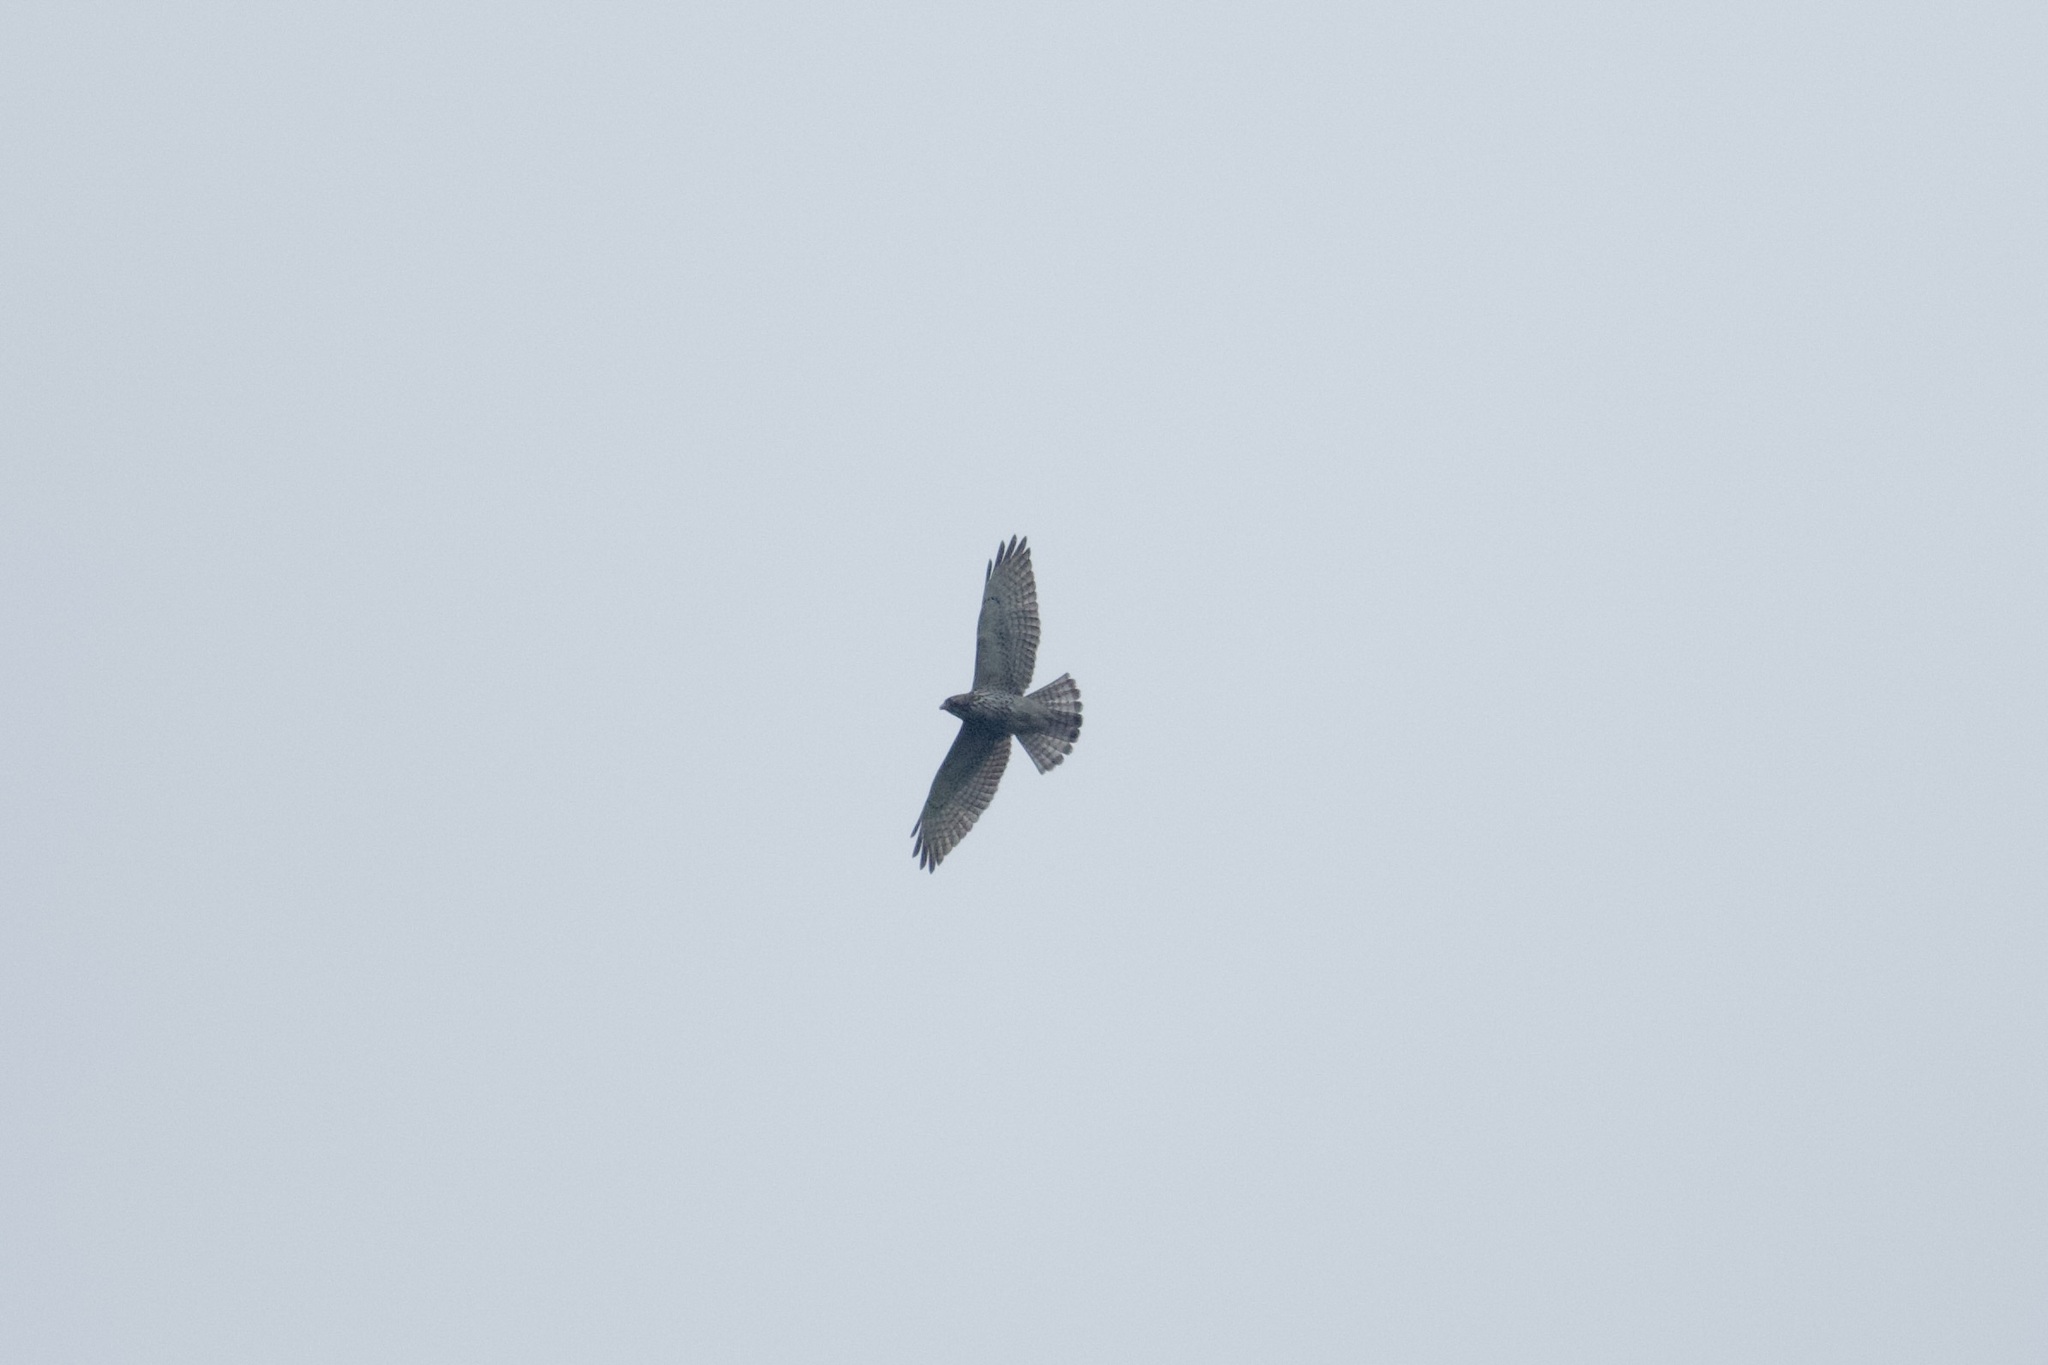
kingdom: Animalia
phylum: Chordata
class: Aves
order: Accipitriformes
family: Accipitridae
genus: Buteo
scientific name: Buteo platypterus
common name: Broad-winged hawk
